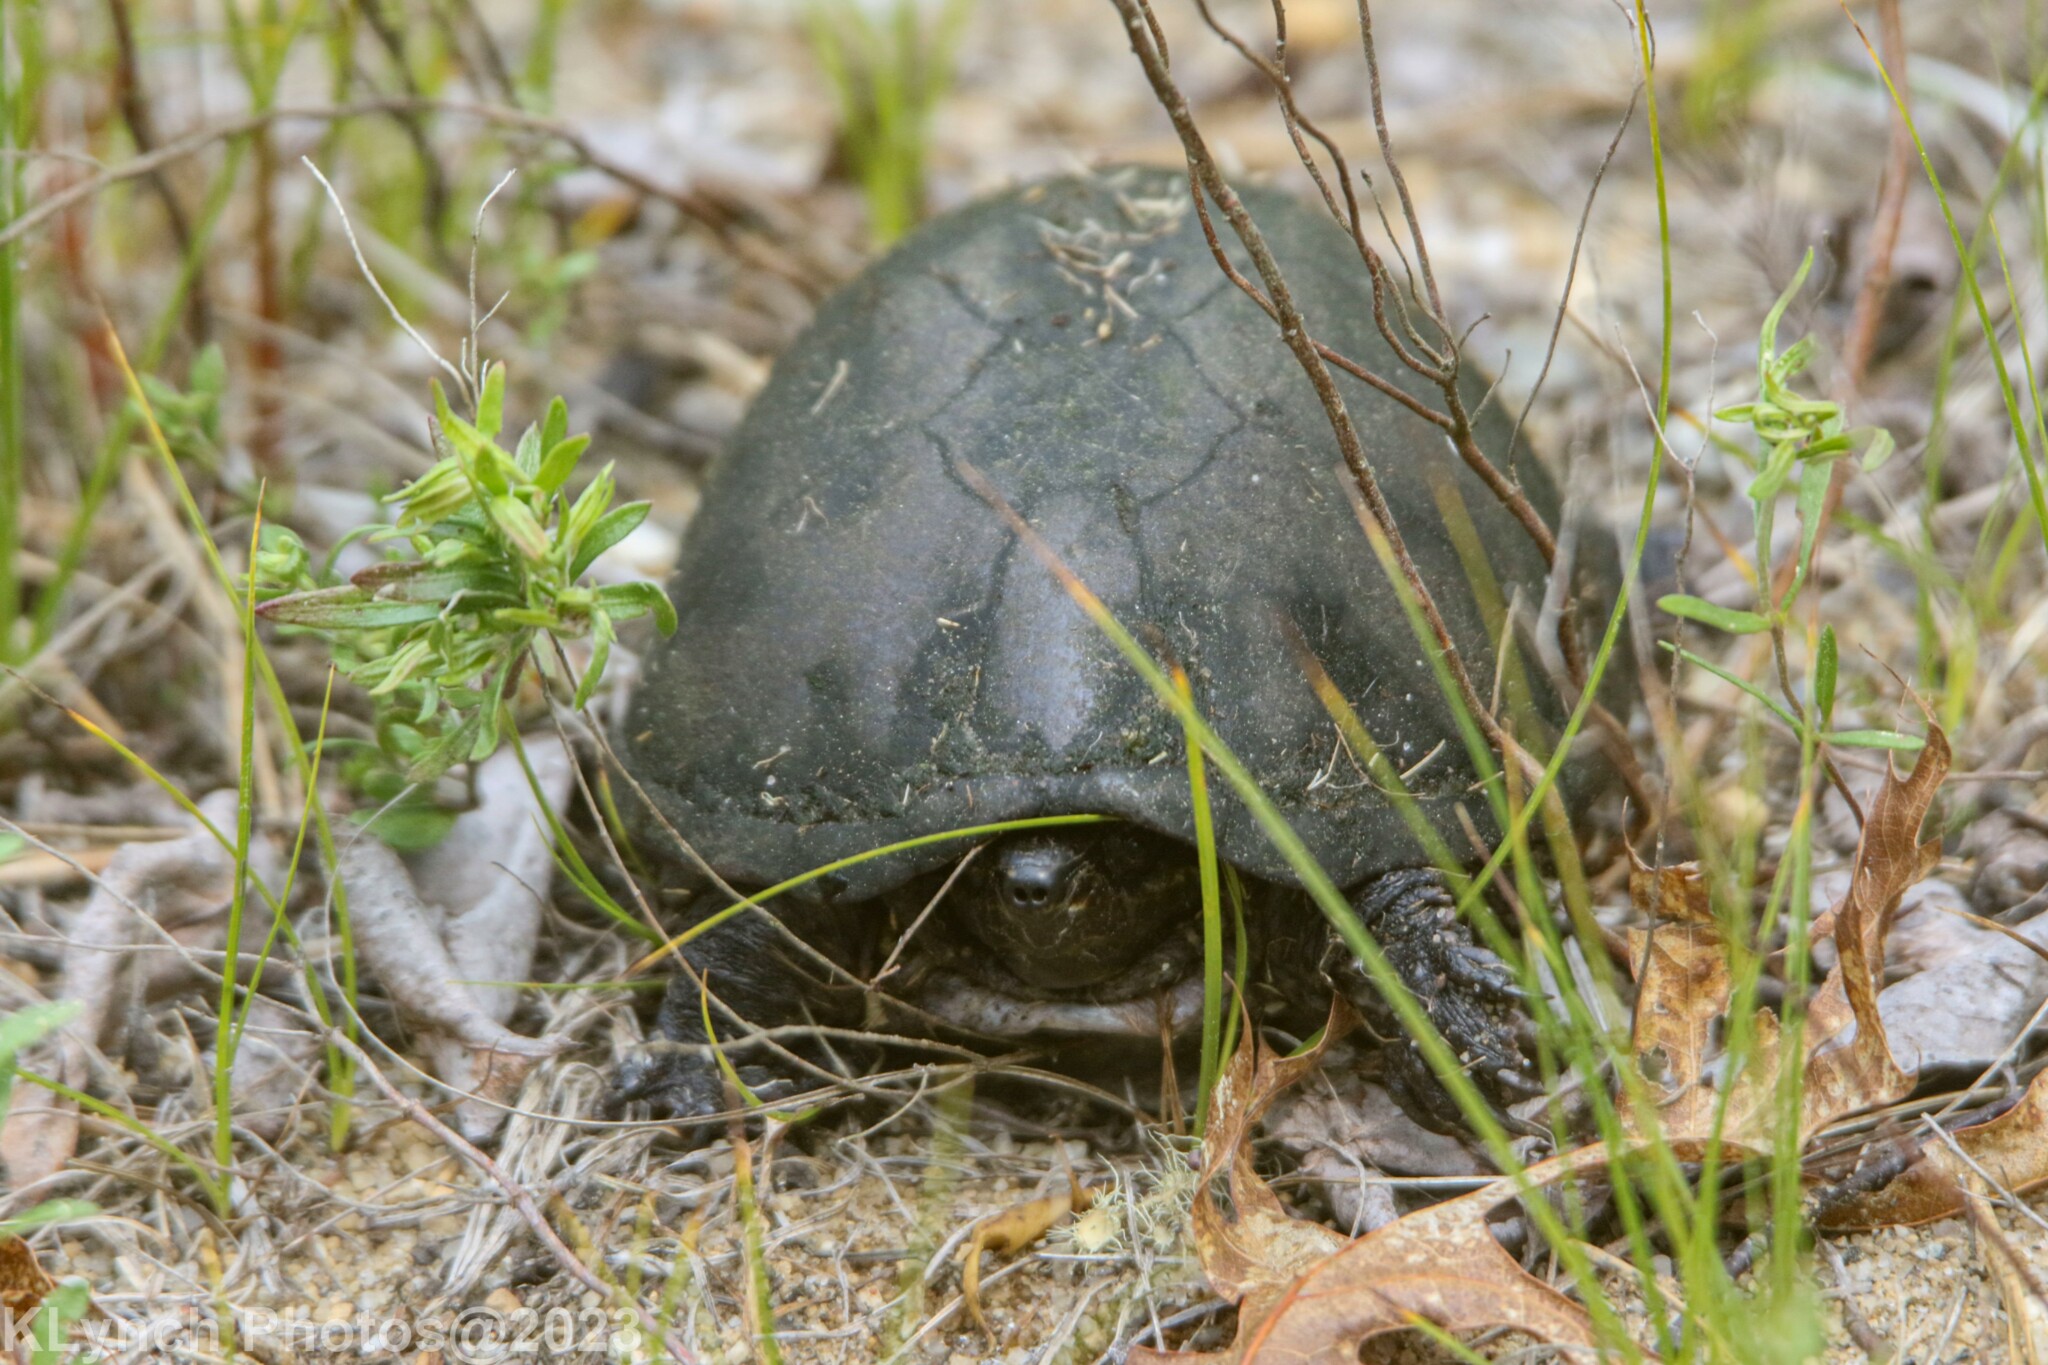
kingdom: Animalia
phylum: Chordata
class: Testudines
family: Kinosternidae
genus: Sternotherus
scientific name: Sternotherus odoratus
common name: Common musk turtle
